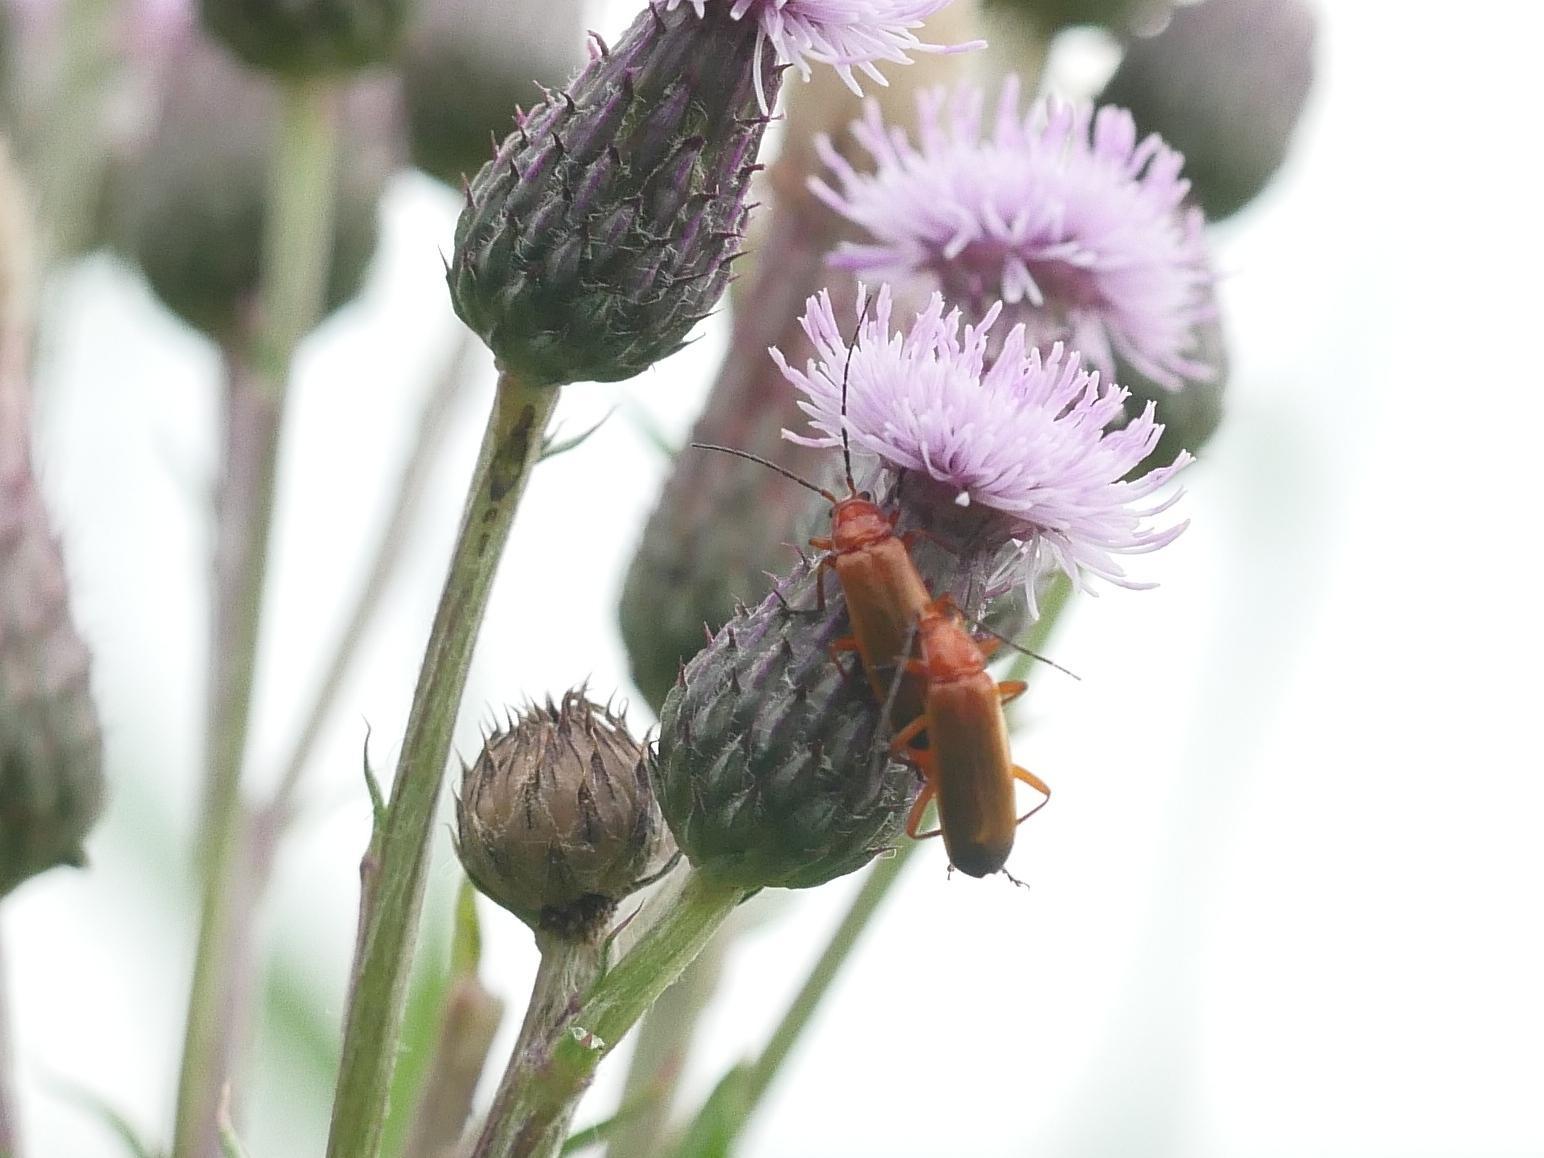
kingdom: Animalia
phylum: Arthropoda
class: Insecta
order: Coleoptera
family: Cantharidae
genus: Rhagonycha
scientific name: Rhagonycha fulva
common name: Common red soldier beetle
